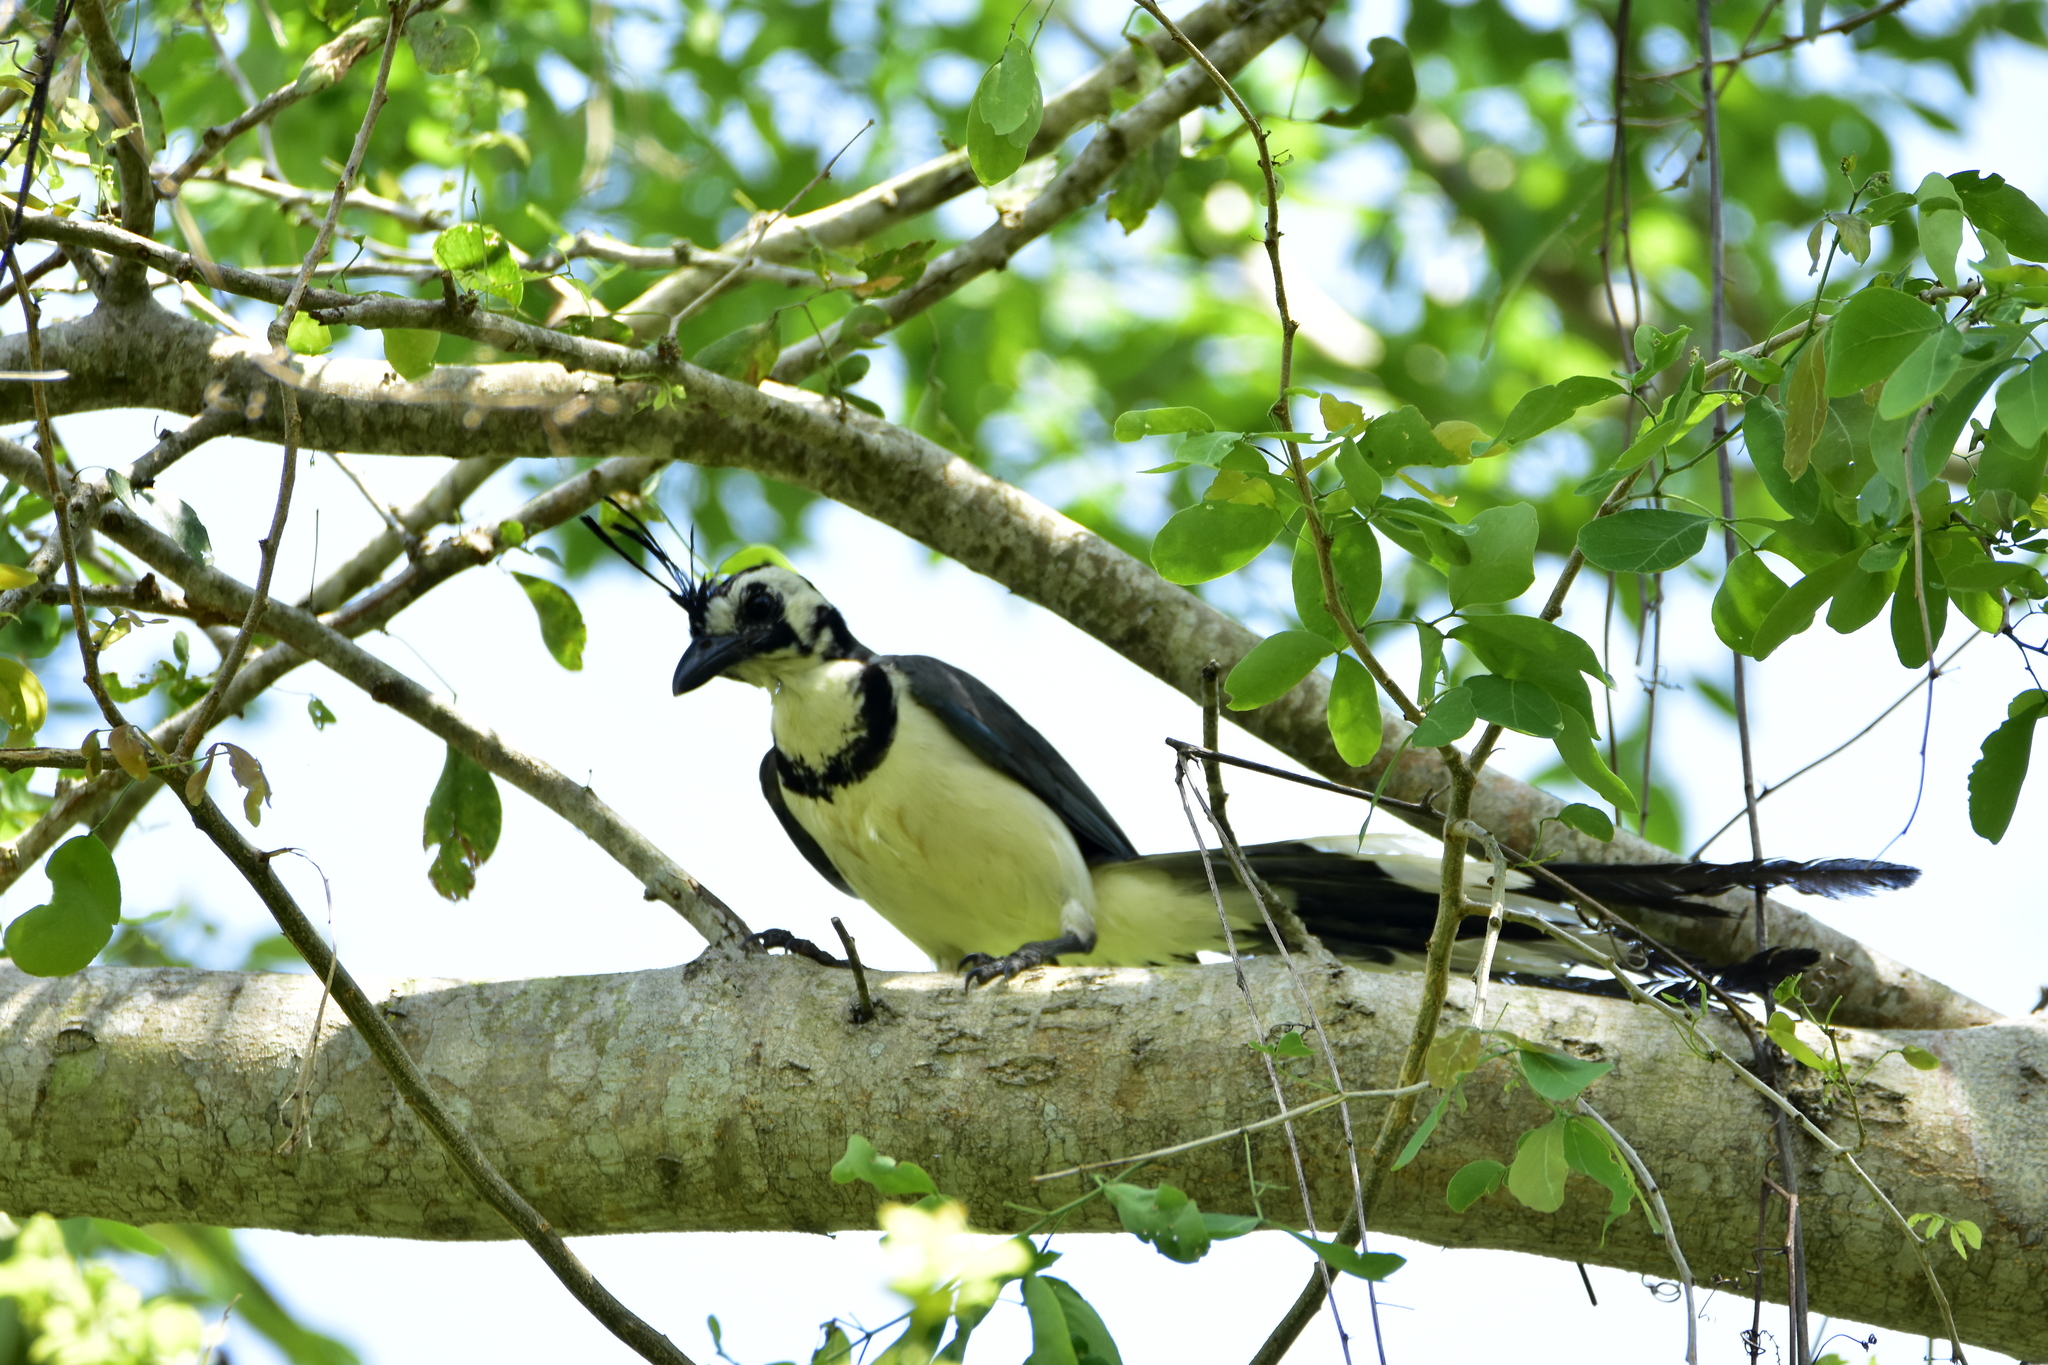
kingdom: Animalia
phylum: Chordata
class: Aves
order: Passeriformes
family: Corvidae
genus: Calocitta
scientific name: Calocitta formosa
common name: White-throated magpie-jay
